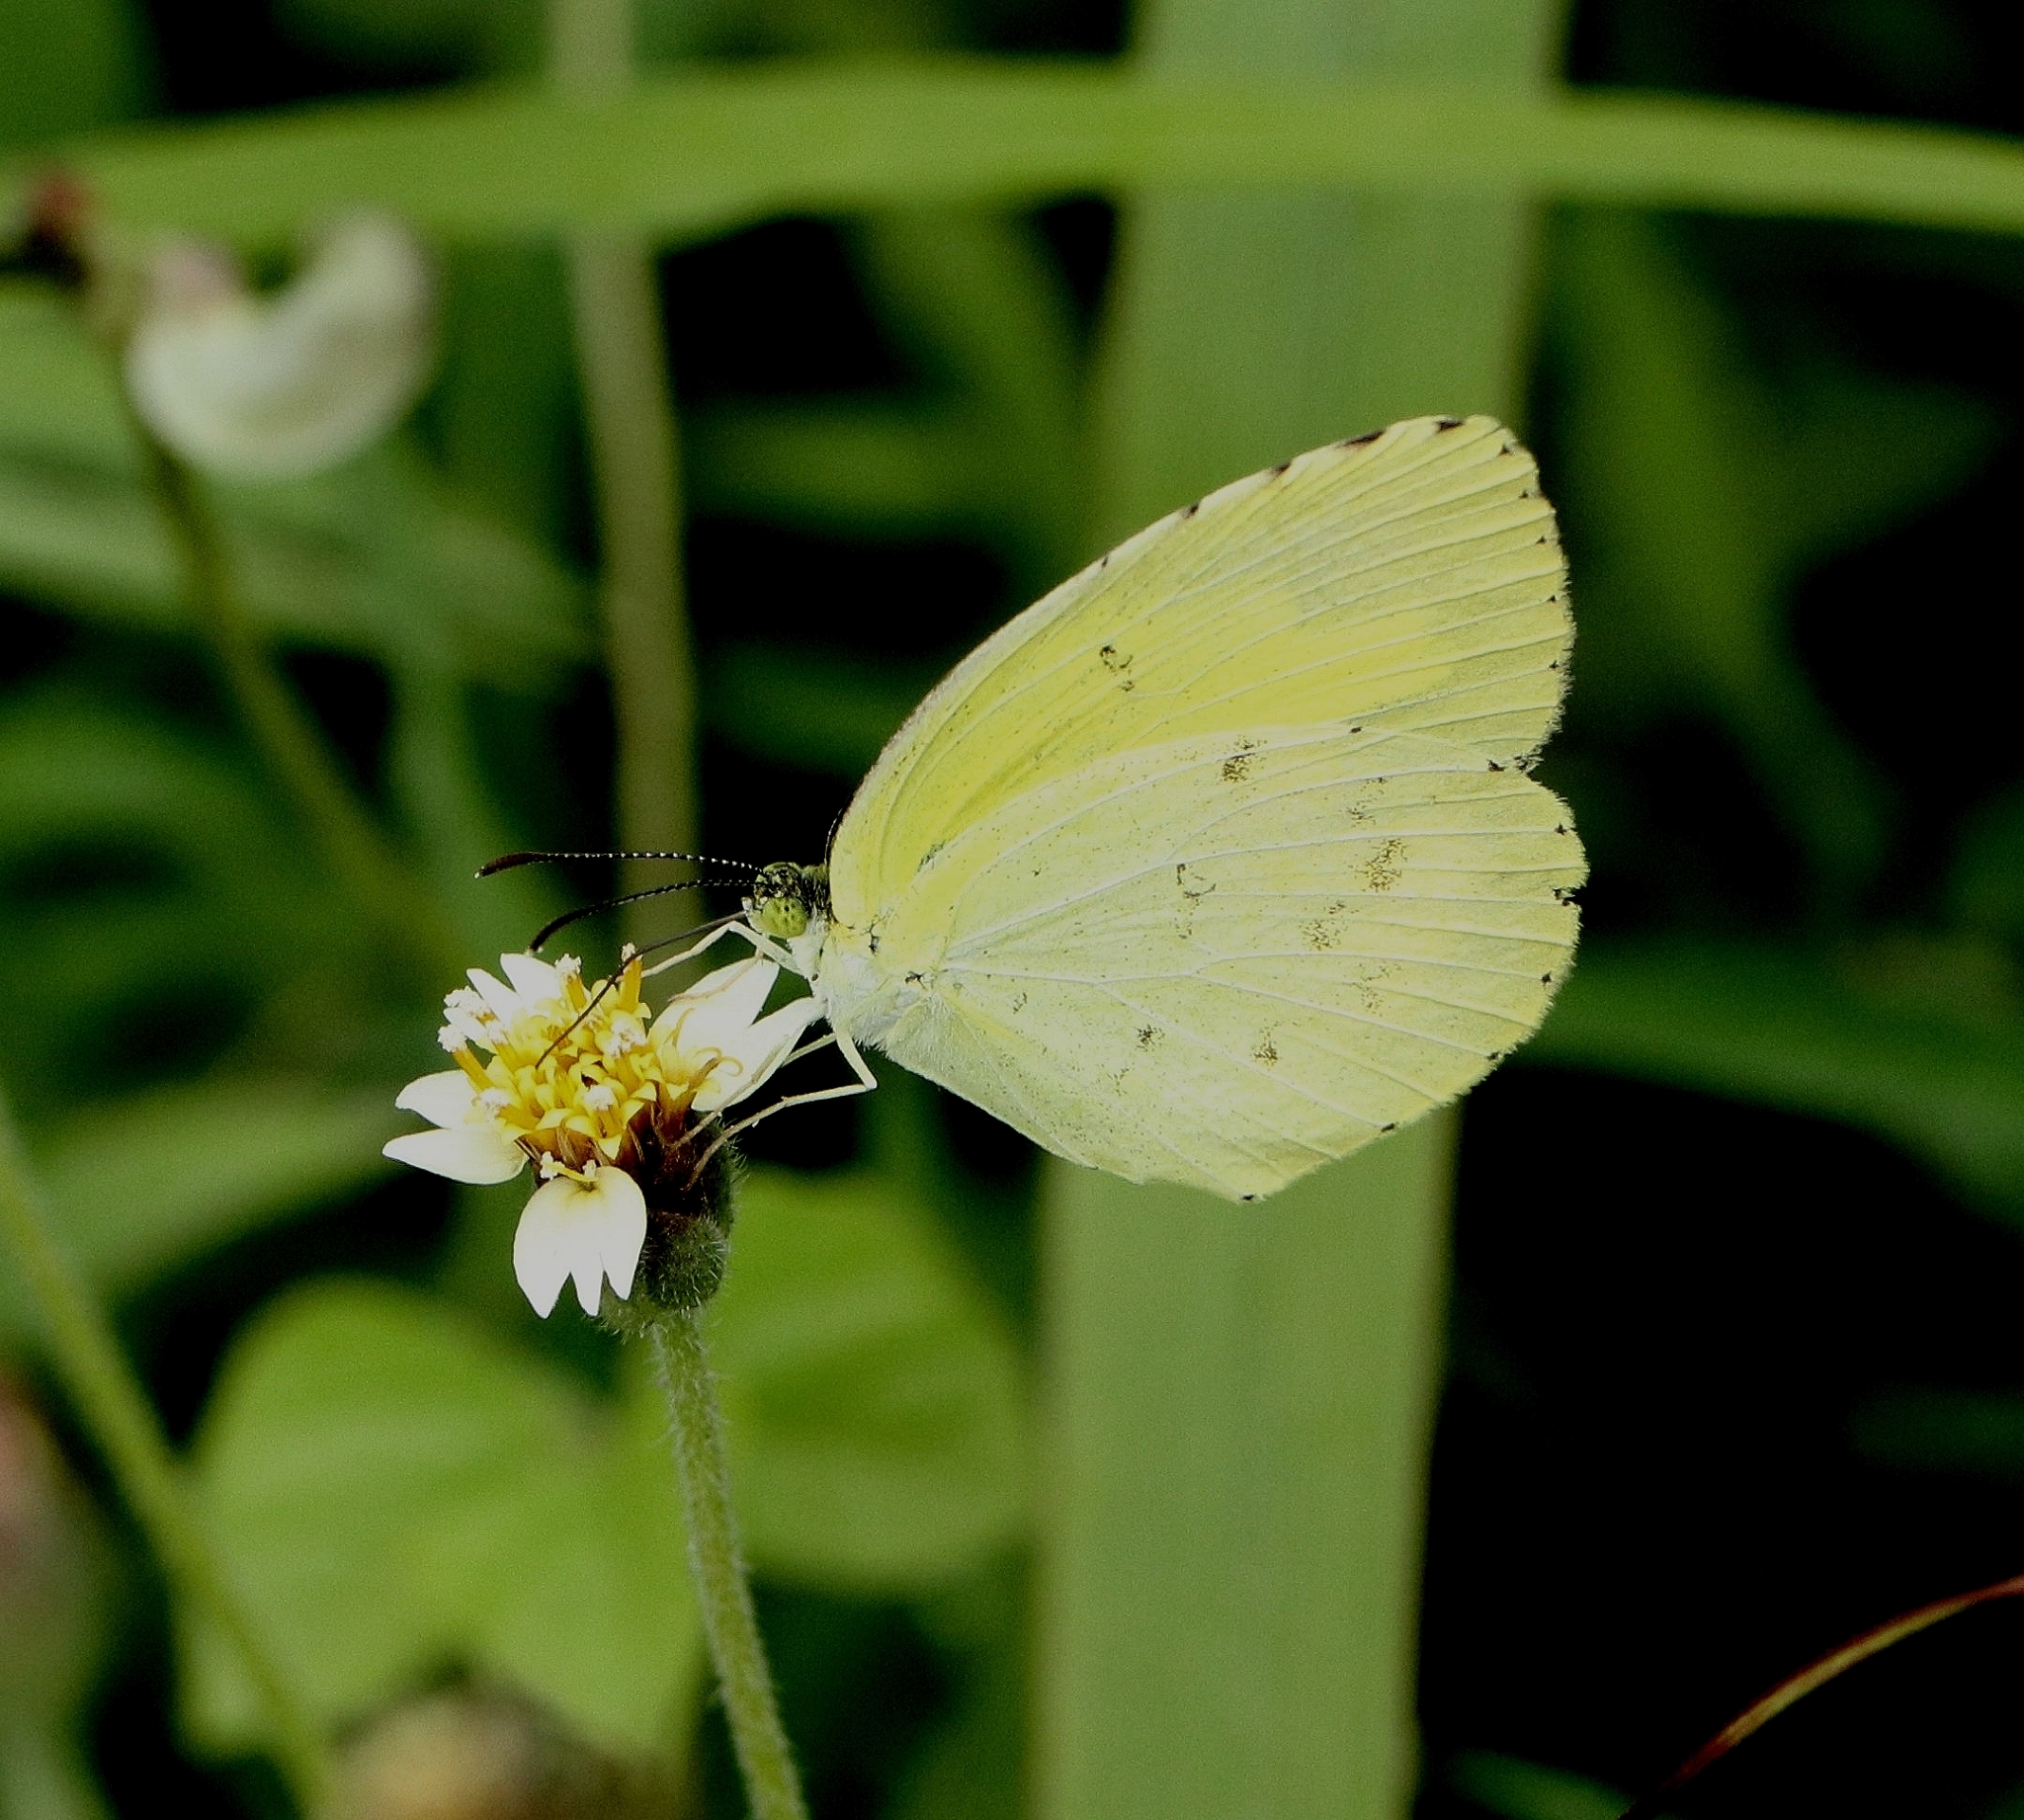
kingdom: Animalia
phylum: Arthropoda
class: Insecta
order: Lepidoptera
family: Pieridae
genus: Eurema
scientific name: Eurema hecabe
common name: Pale grass yellow
